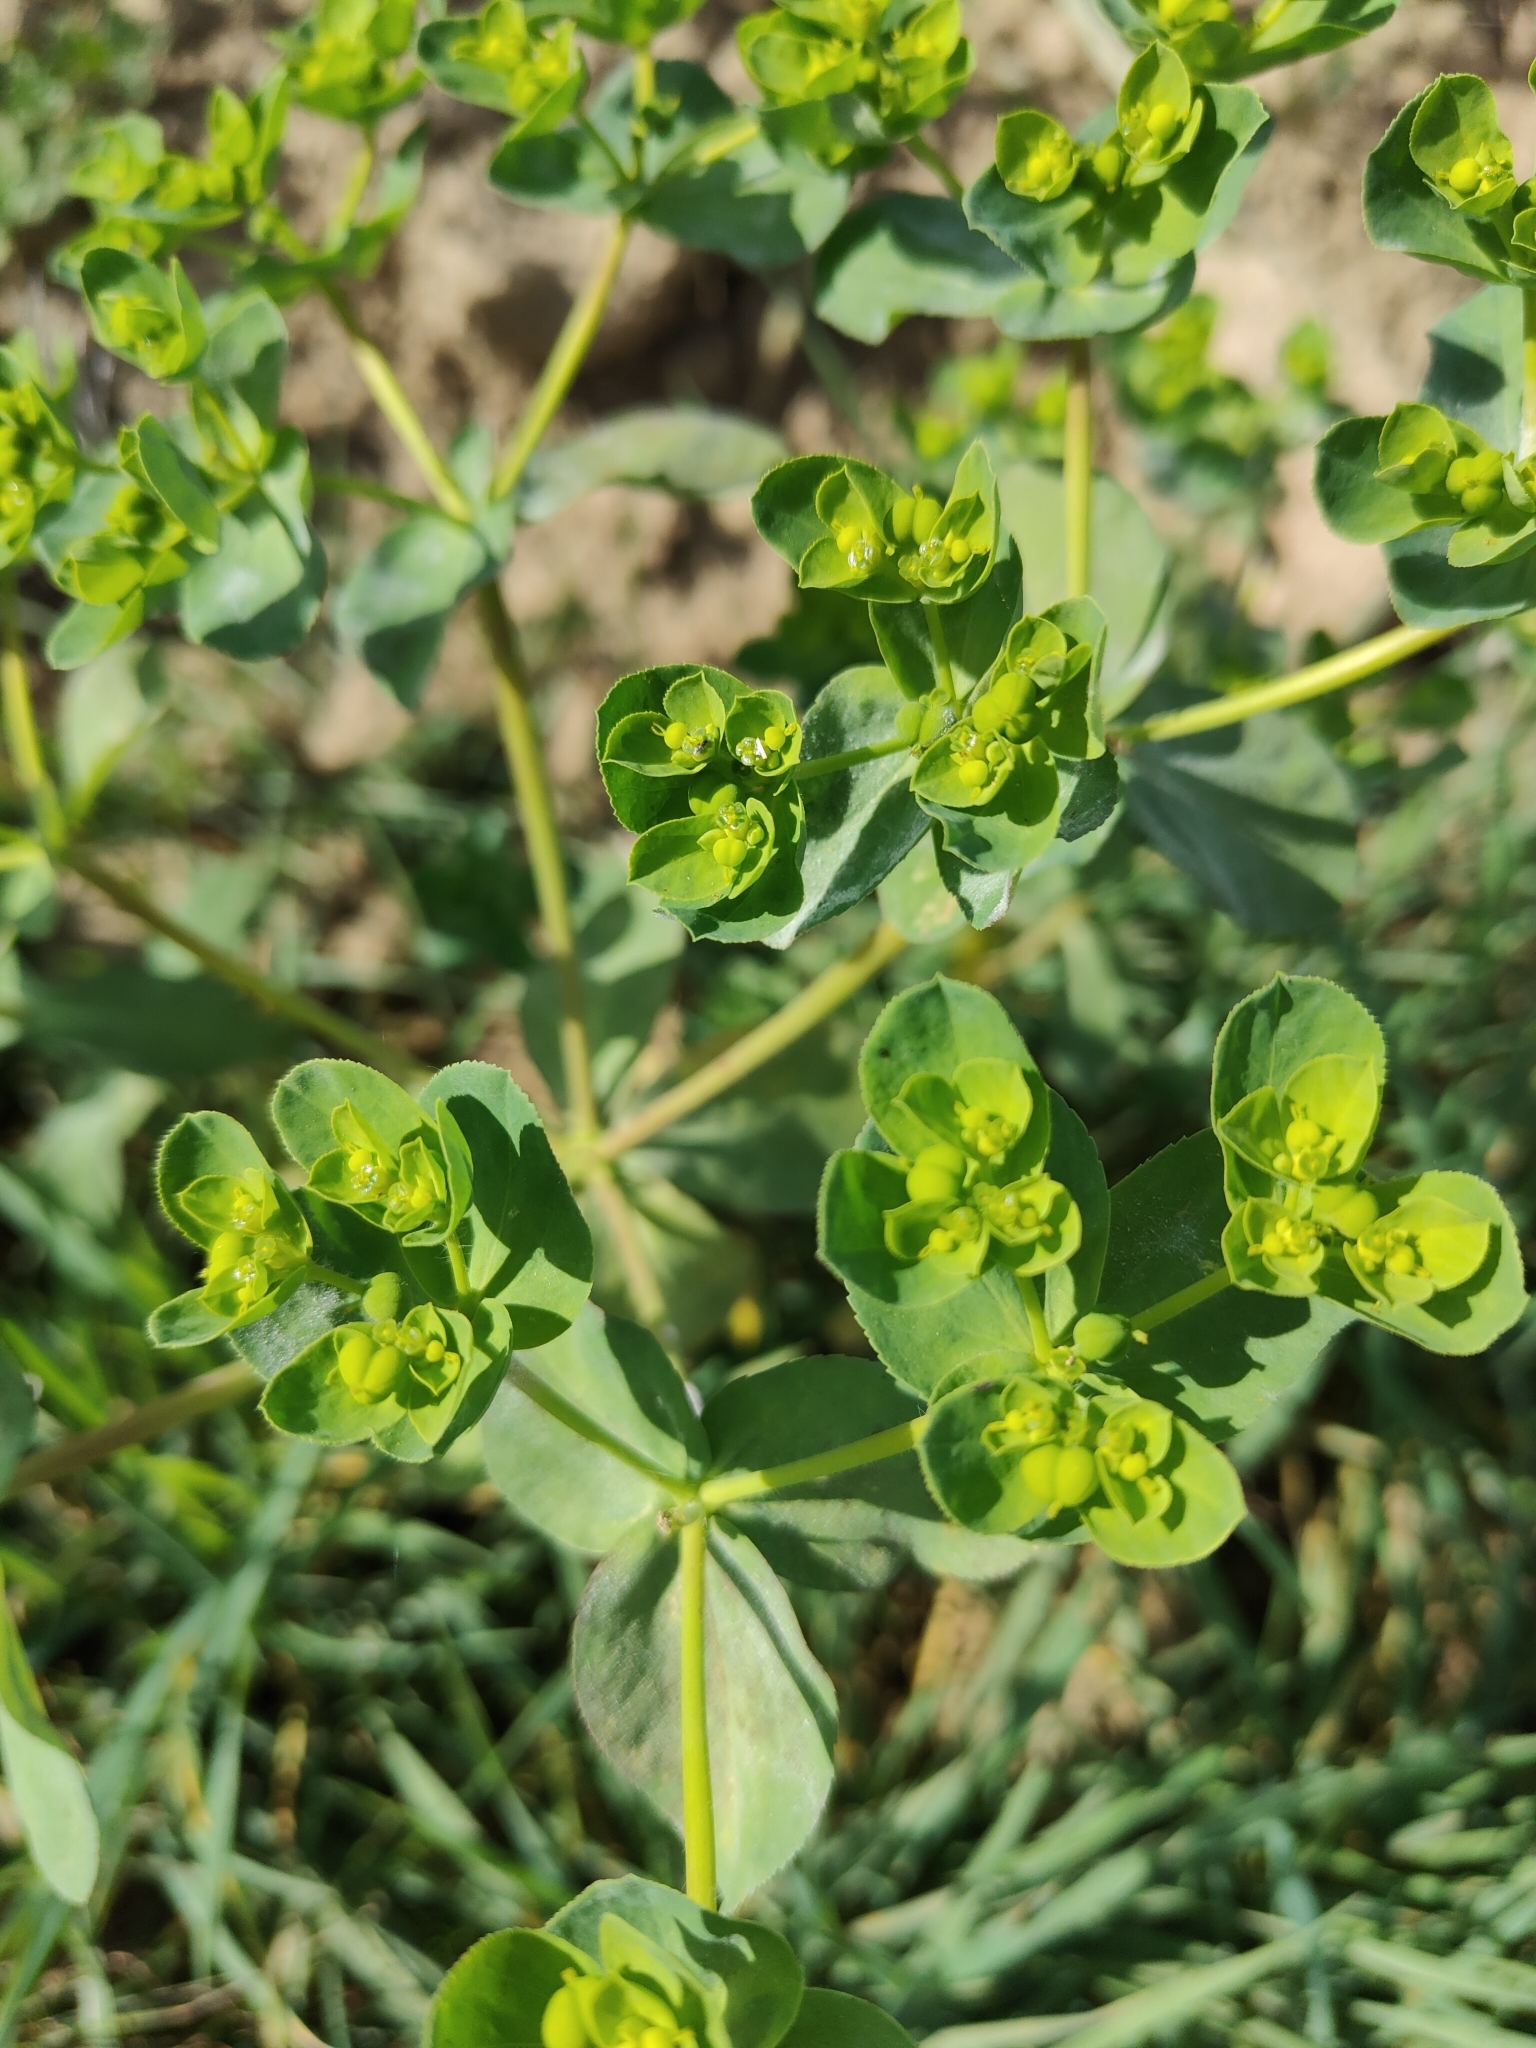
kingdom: Plantae
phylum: Tracheophyta
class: Magnoliopsida
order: Malpighiales
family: Euphorbiaceae
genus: Euphorbia
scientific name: Euphorbia helioscopia
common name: Sun spurge
